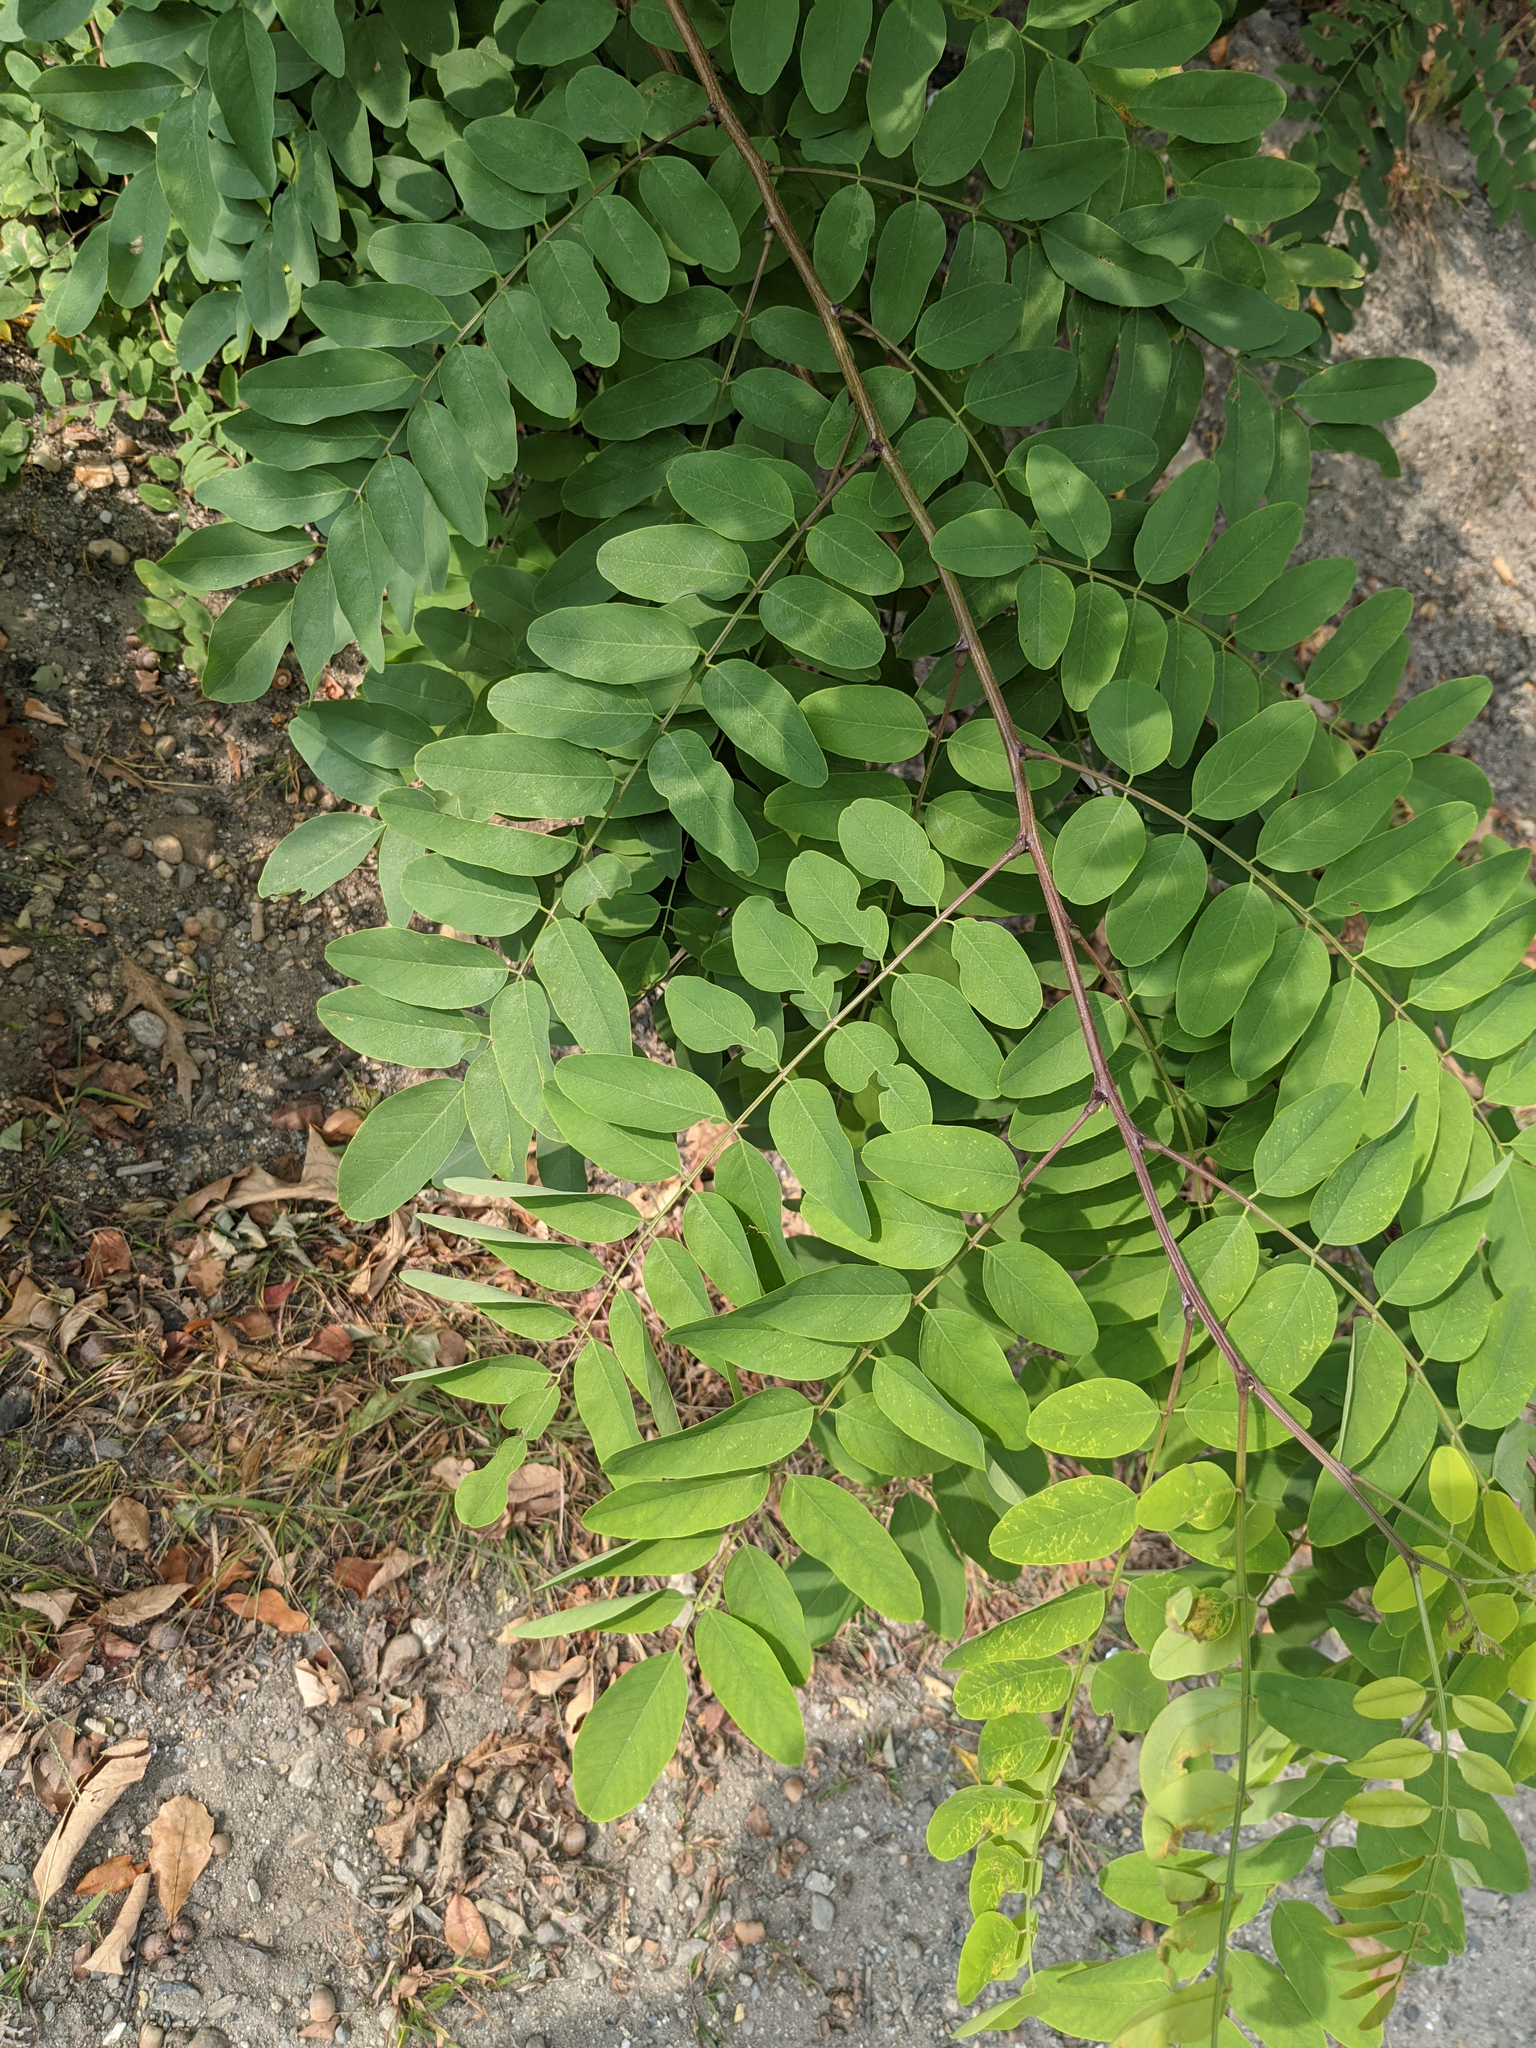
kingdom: Plantae
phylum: Tracheophyta
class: Magnoliopsida
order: Fabales
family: Fabaceae
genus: Robinia
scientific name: Robinia pseudoacacia
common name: Black locust
